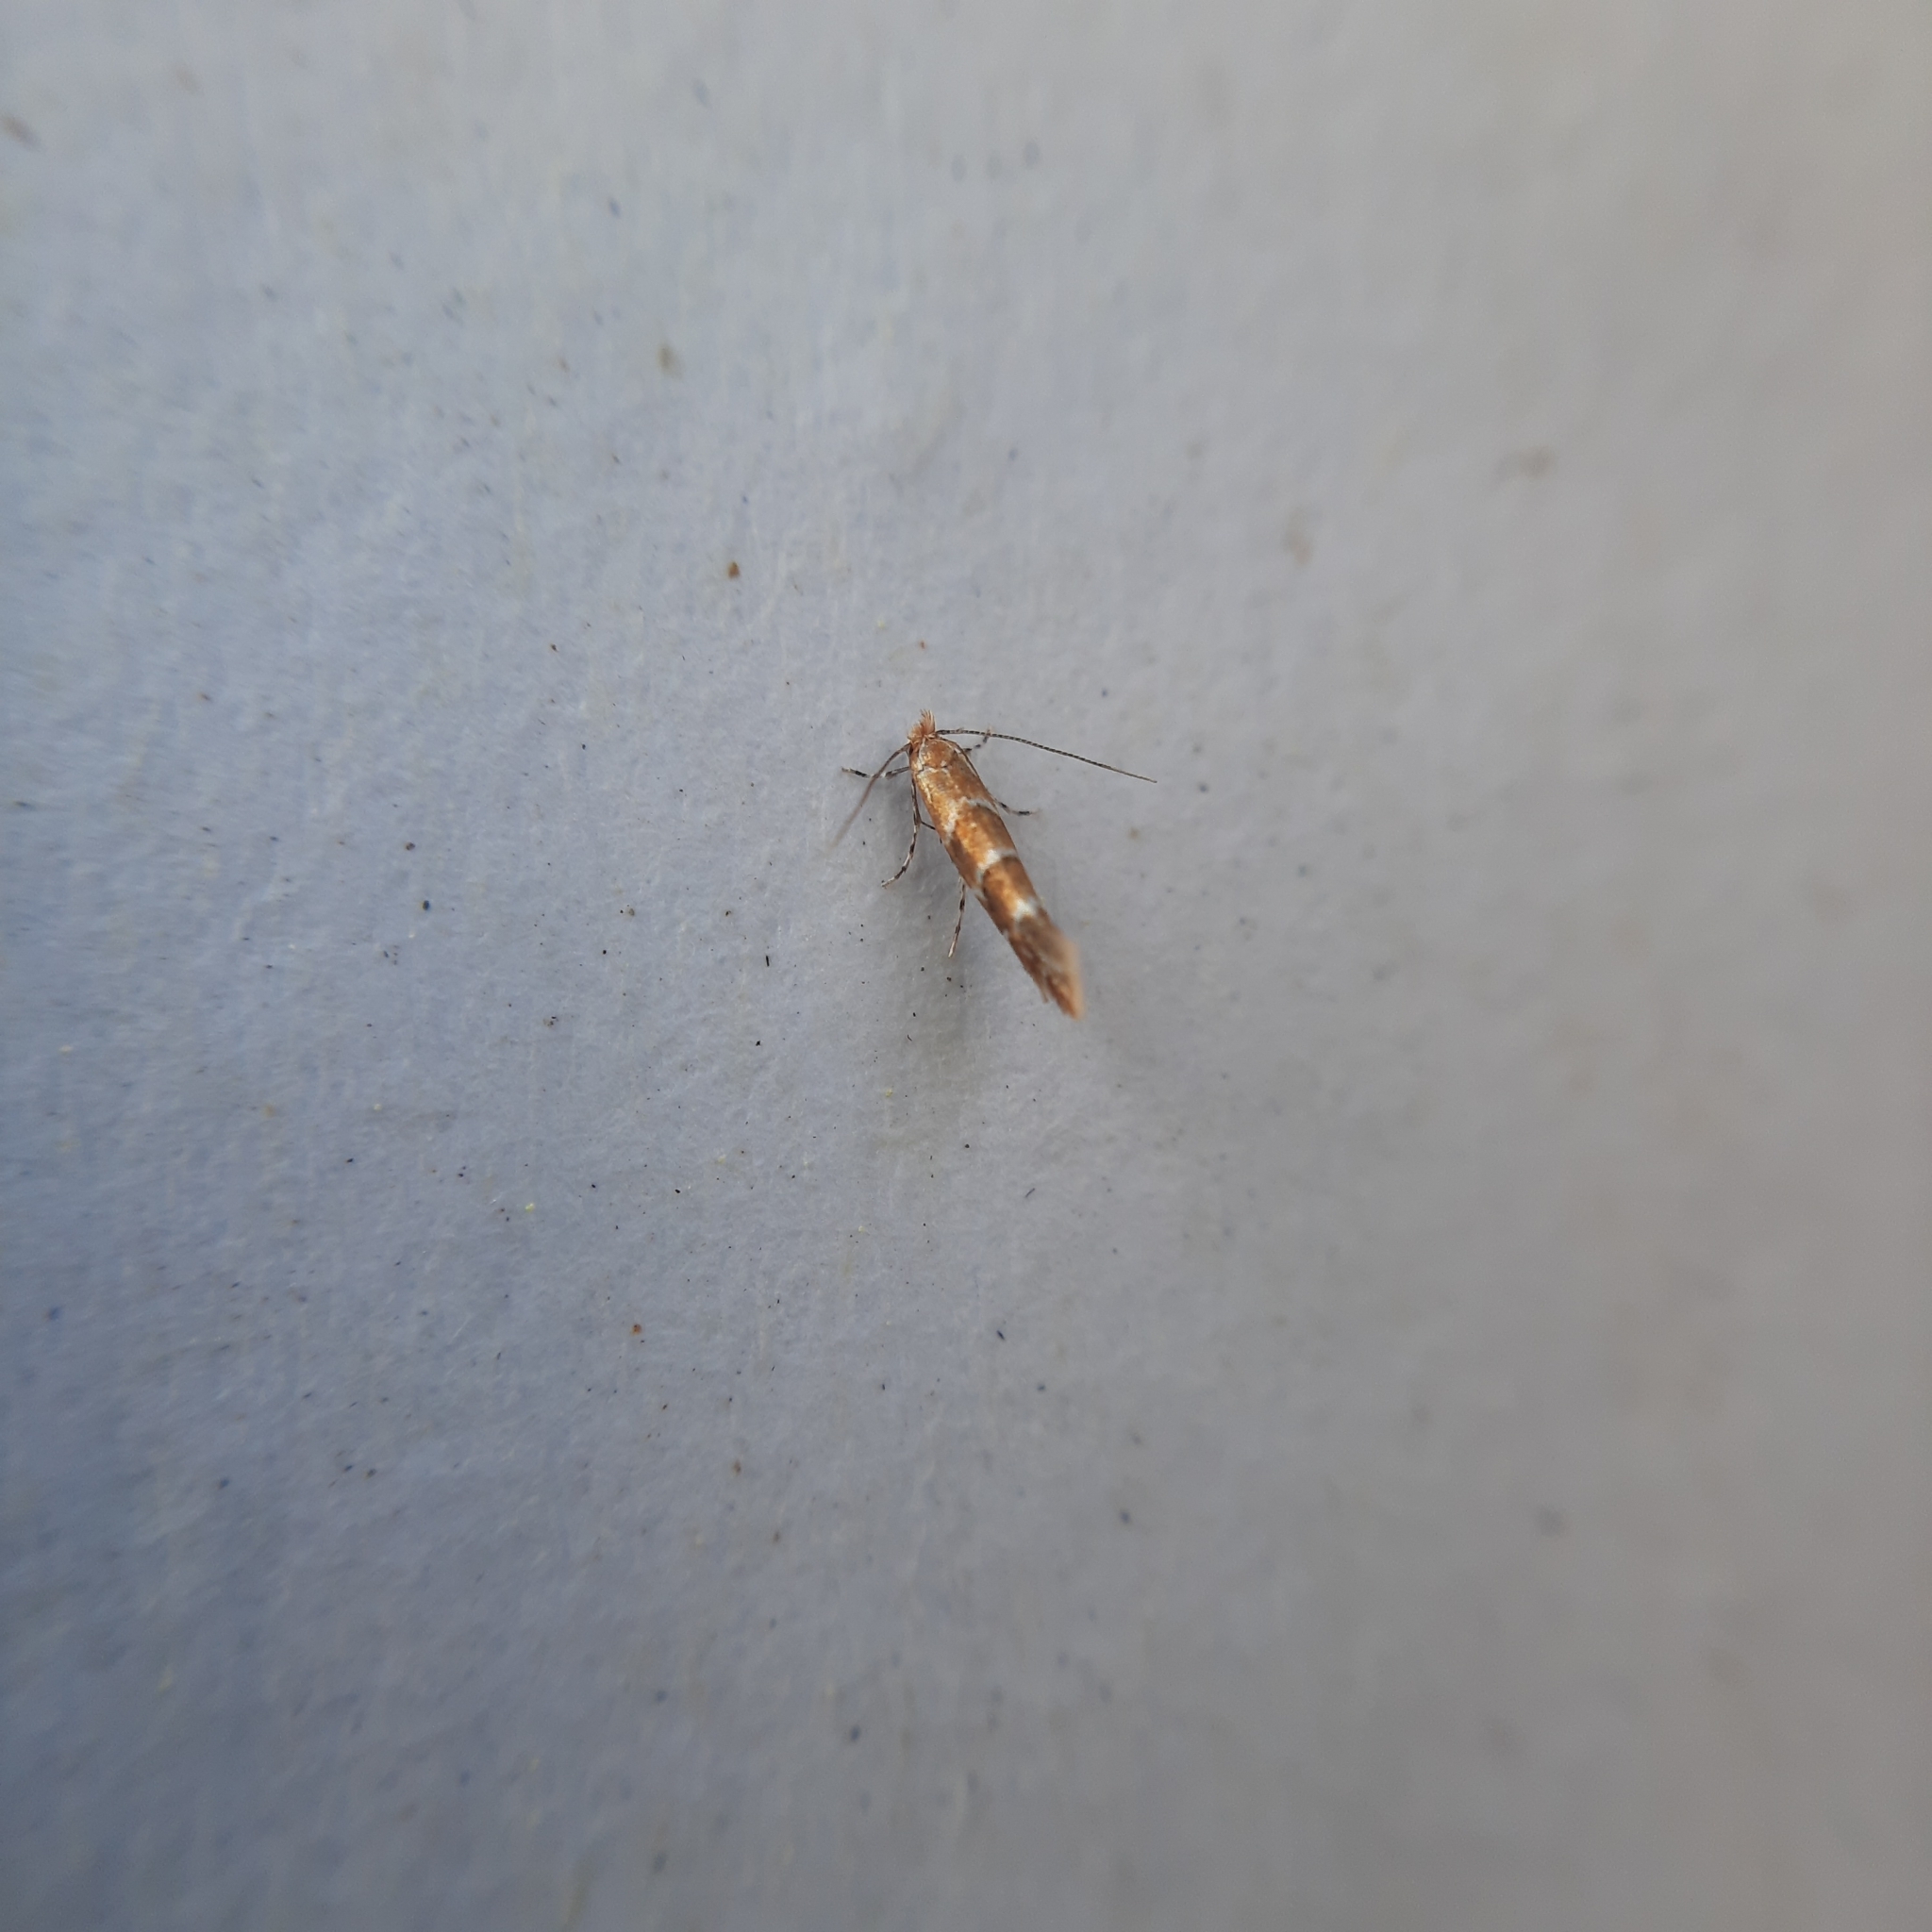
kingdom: Animalia
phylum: Arthropoda
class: Insecta
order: Lepidoptera
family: Gracillariidae
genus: Cameraria
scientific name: Cameraria ohridella
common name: Horse-chestnut leaf-miner
